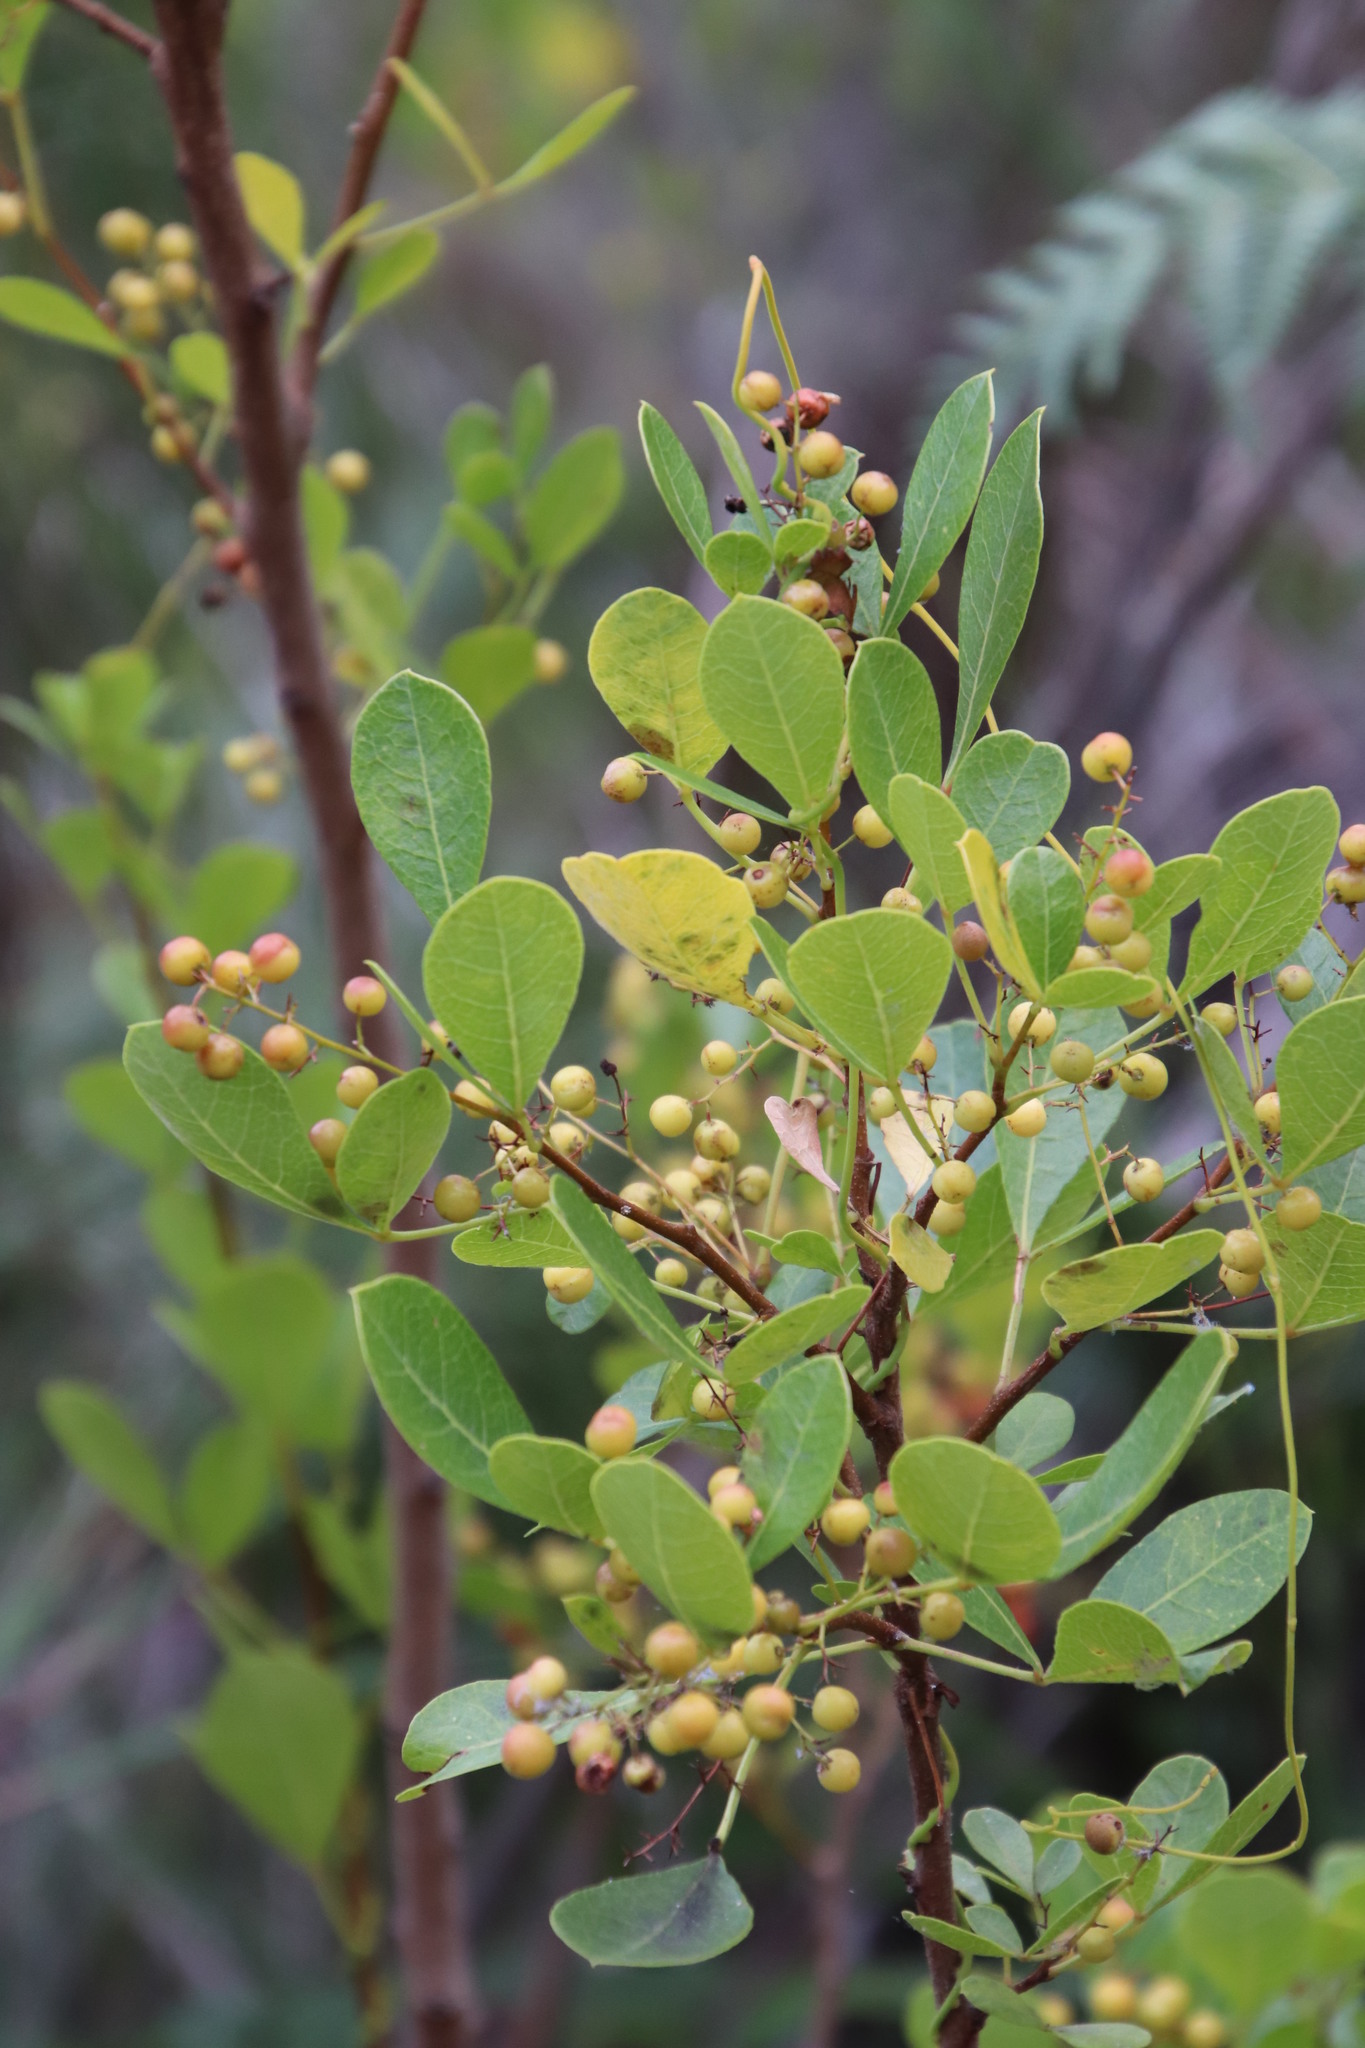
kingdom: Plantae
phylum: Tracheophyta
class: Magnoliopsida
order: Sapindales
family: Anacardiaceae
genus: Searsia
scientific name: Searsia laevigata
